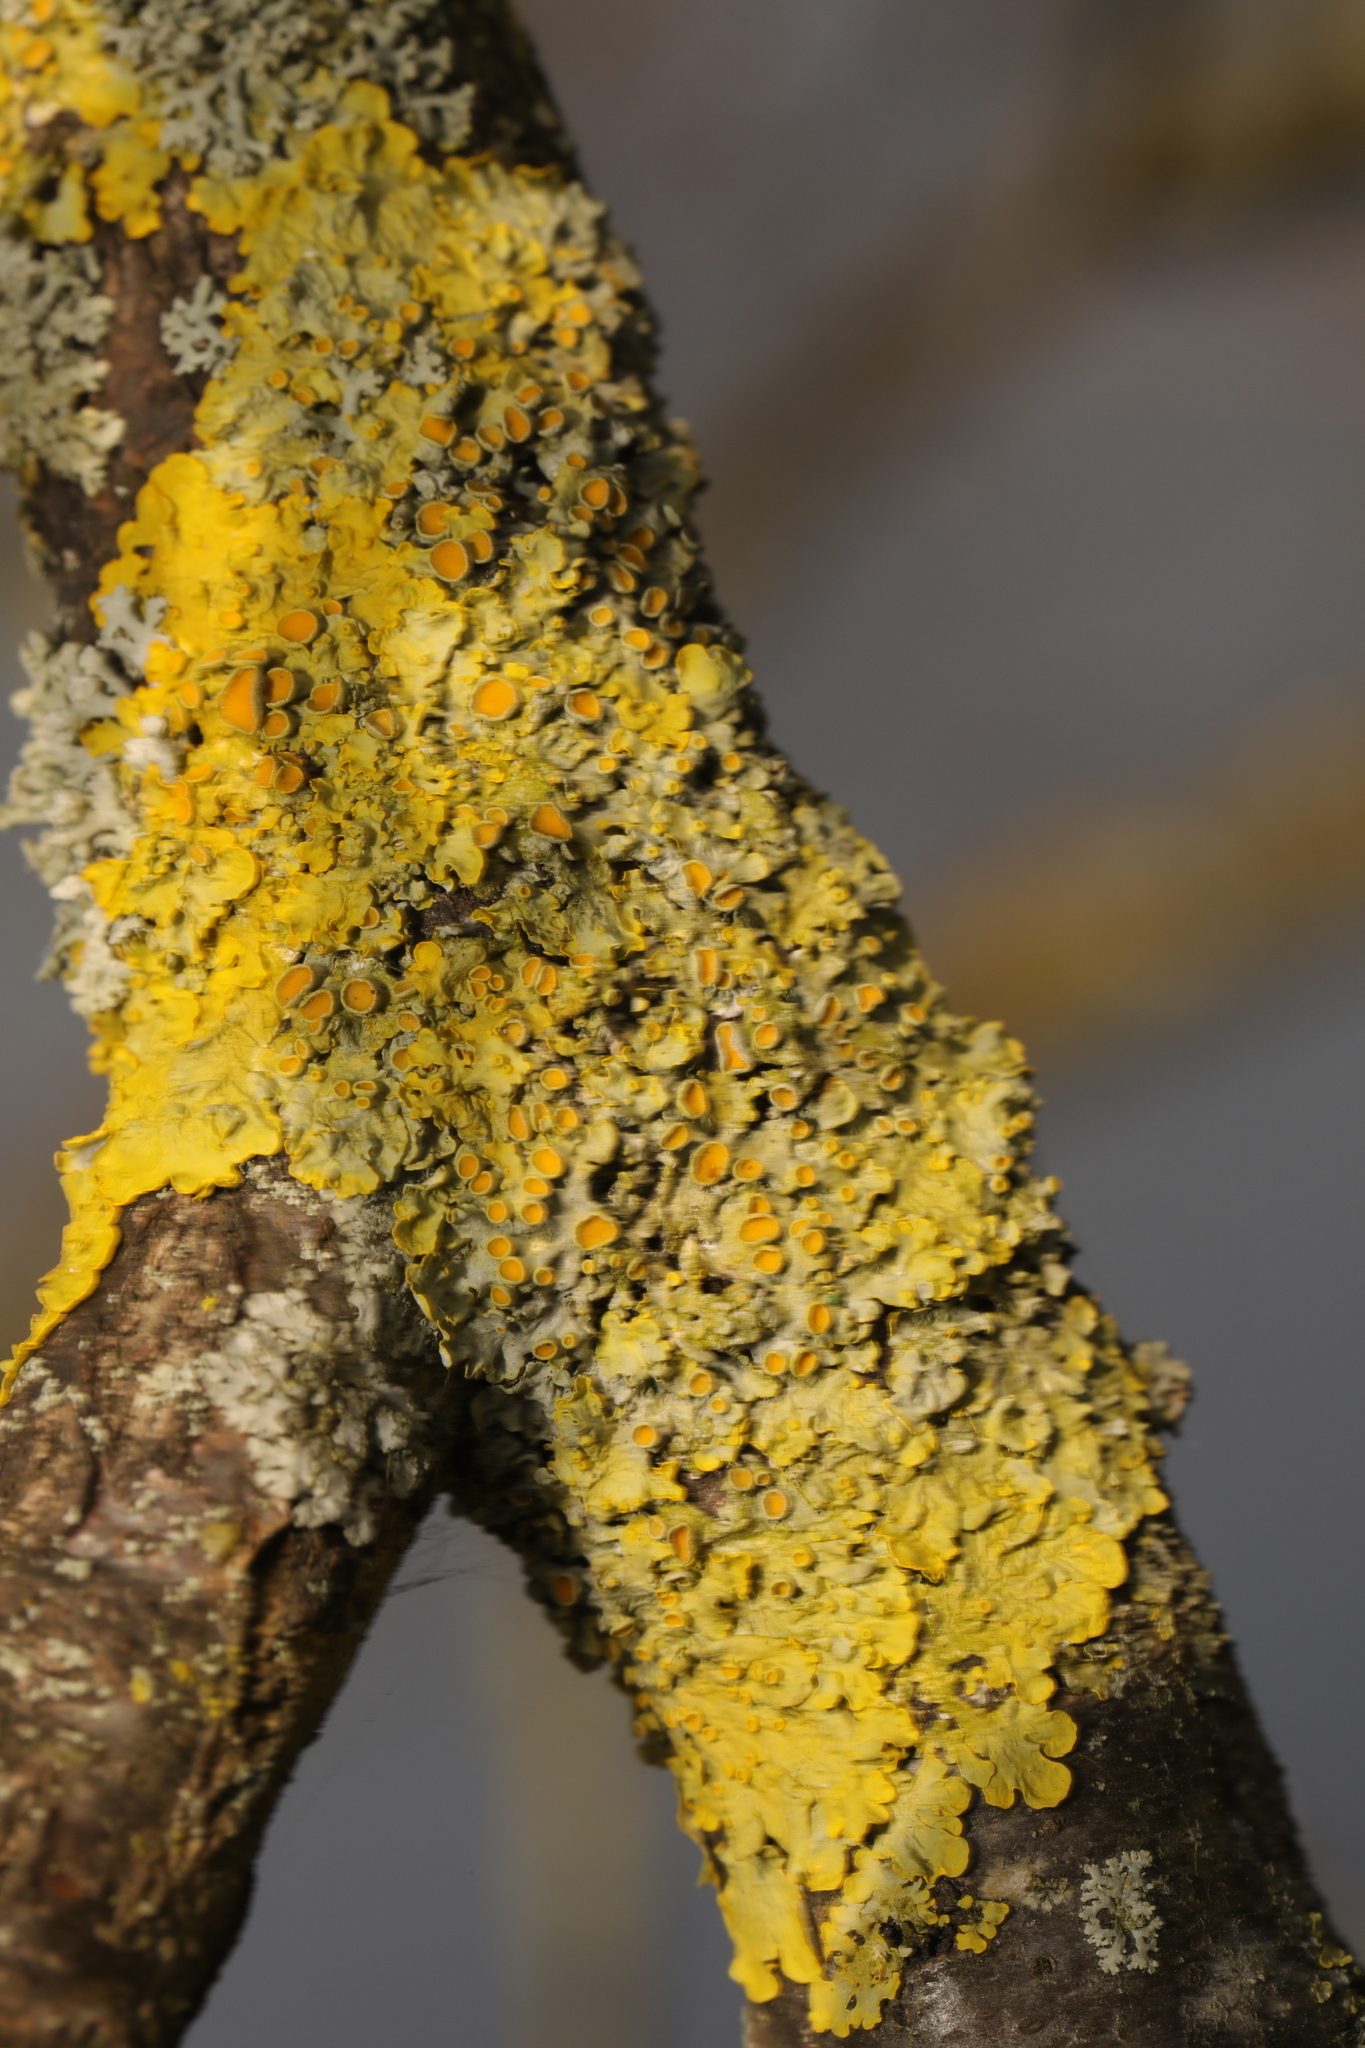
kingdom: Fungi
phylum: Ascomycota
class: Lecanoromycetes
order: Teloschistales
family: Teloschistaceae
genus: Xanthoria
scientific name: Xanthoria parietina
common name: Common orange lichen
